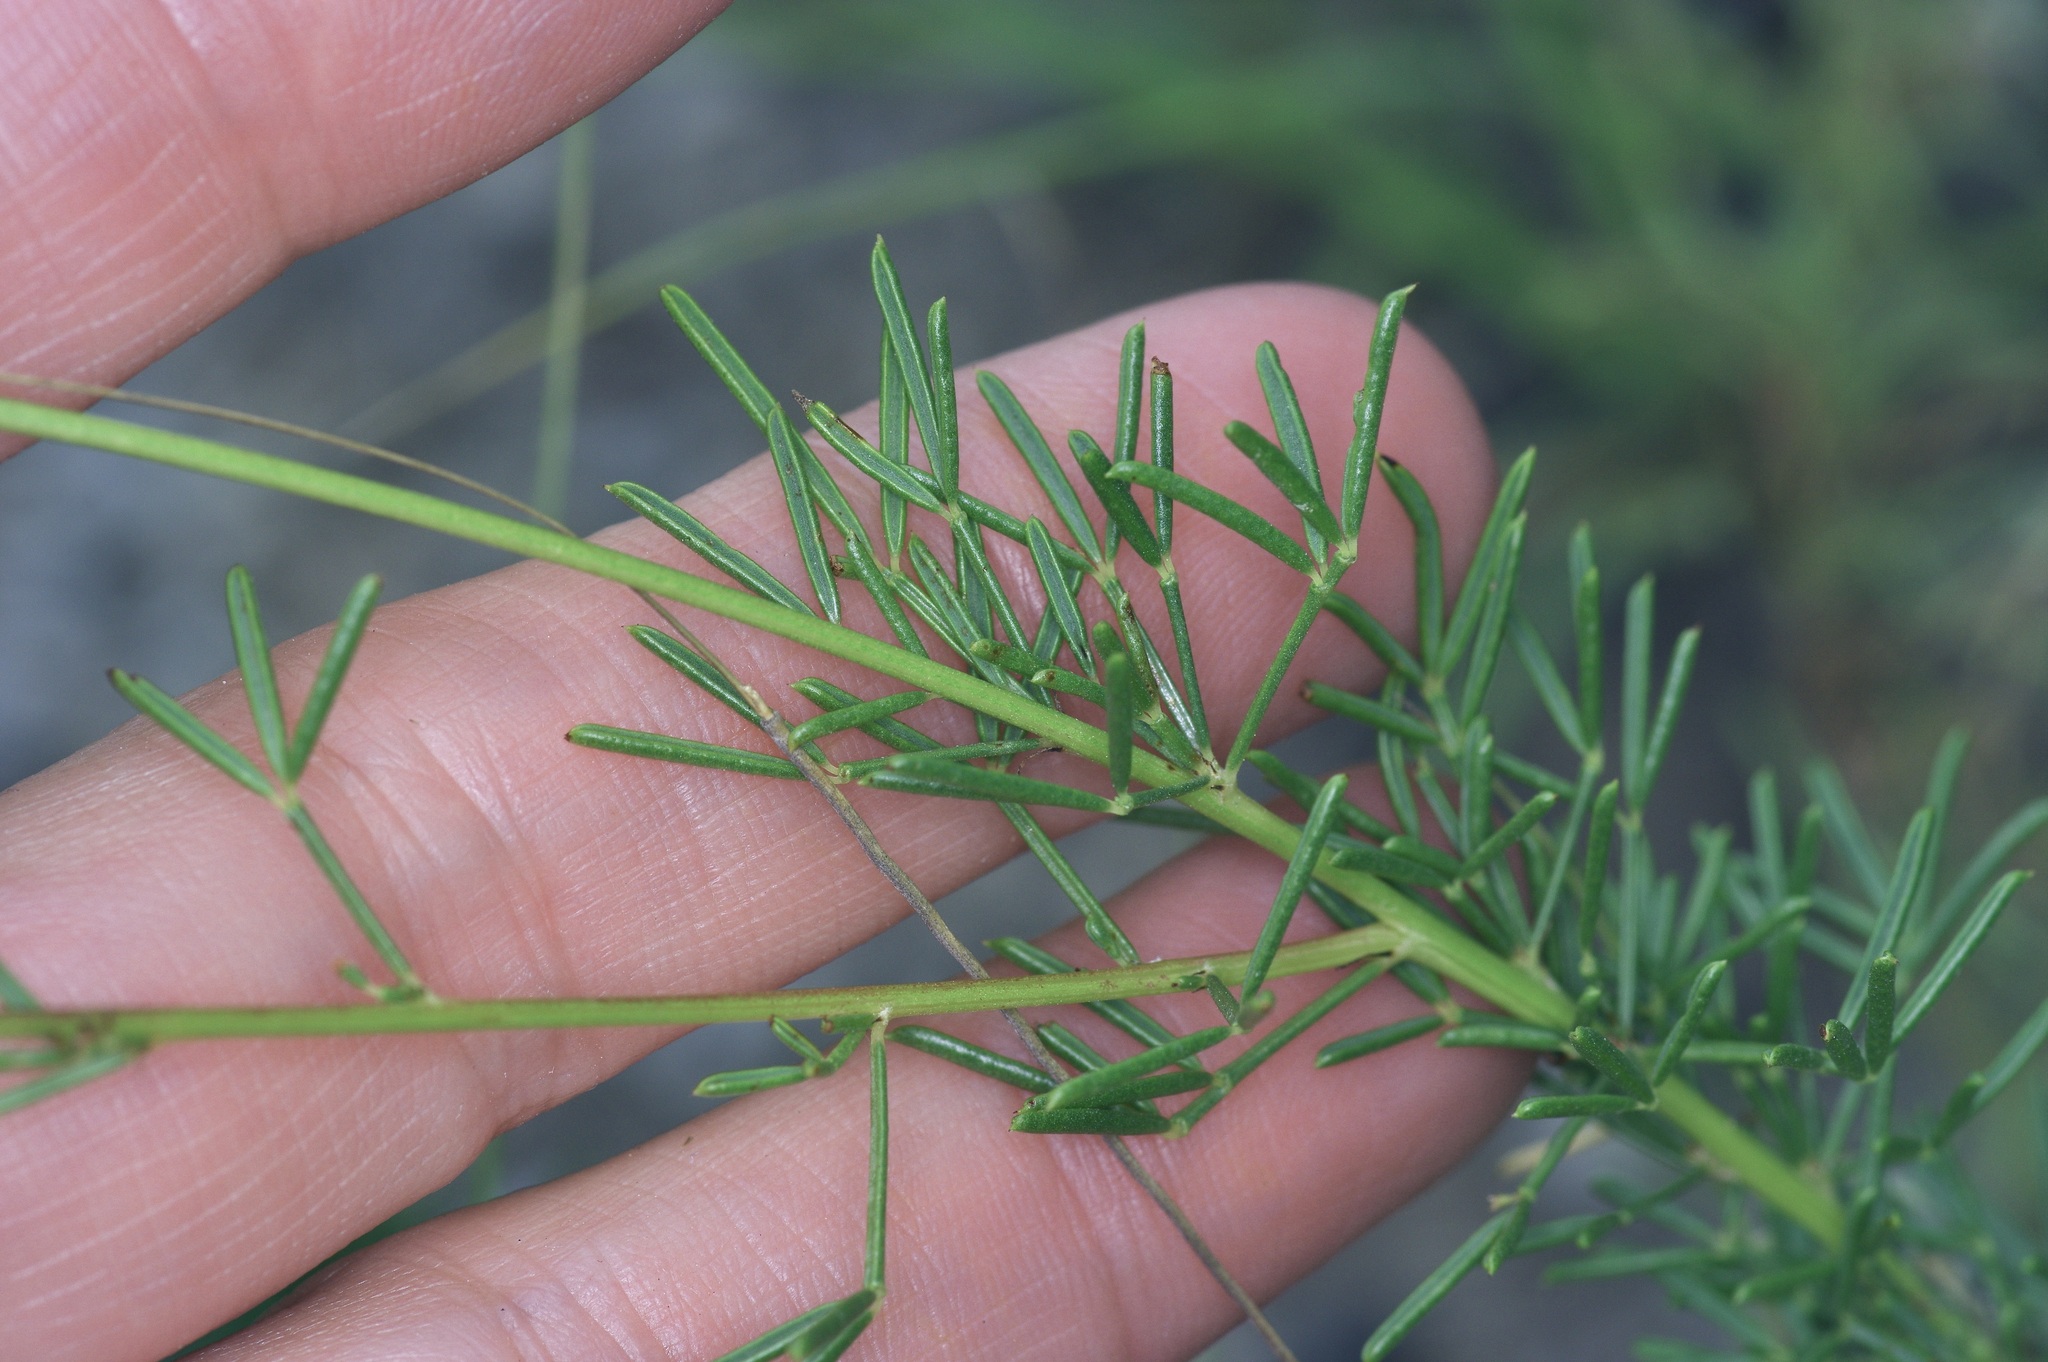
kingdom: Plantae
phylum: Tracheophyta
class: Magnoliopsida
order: Fabales
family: Fabaceae
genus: Dalea
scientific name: Dalea tenuis
